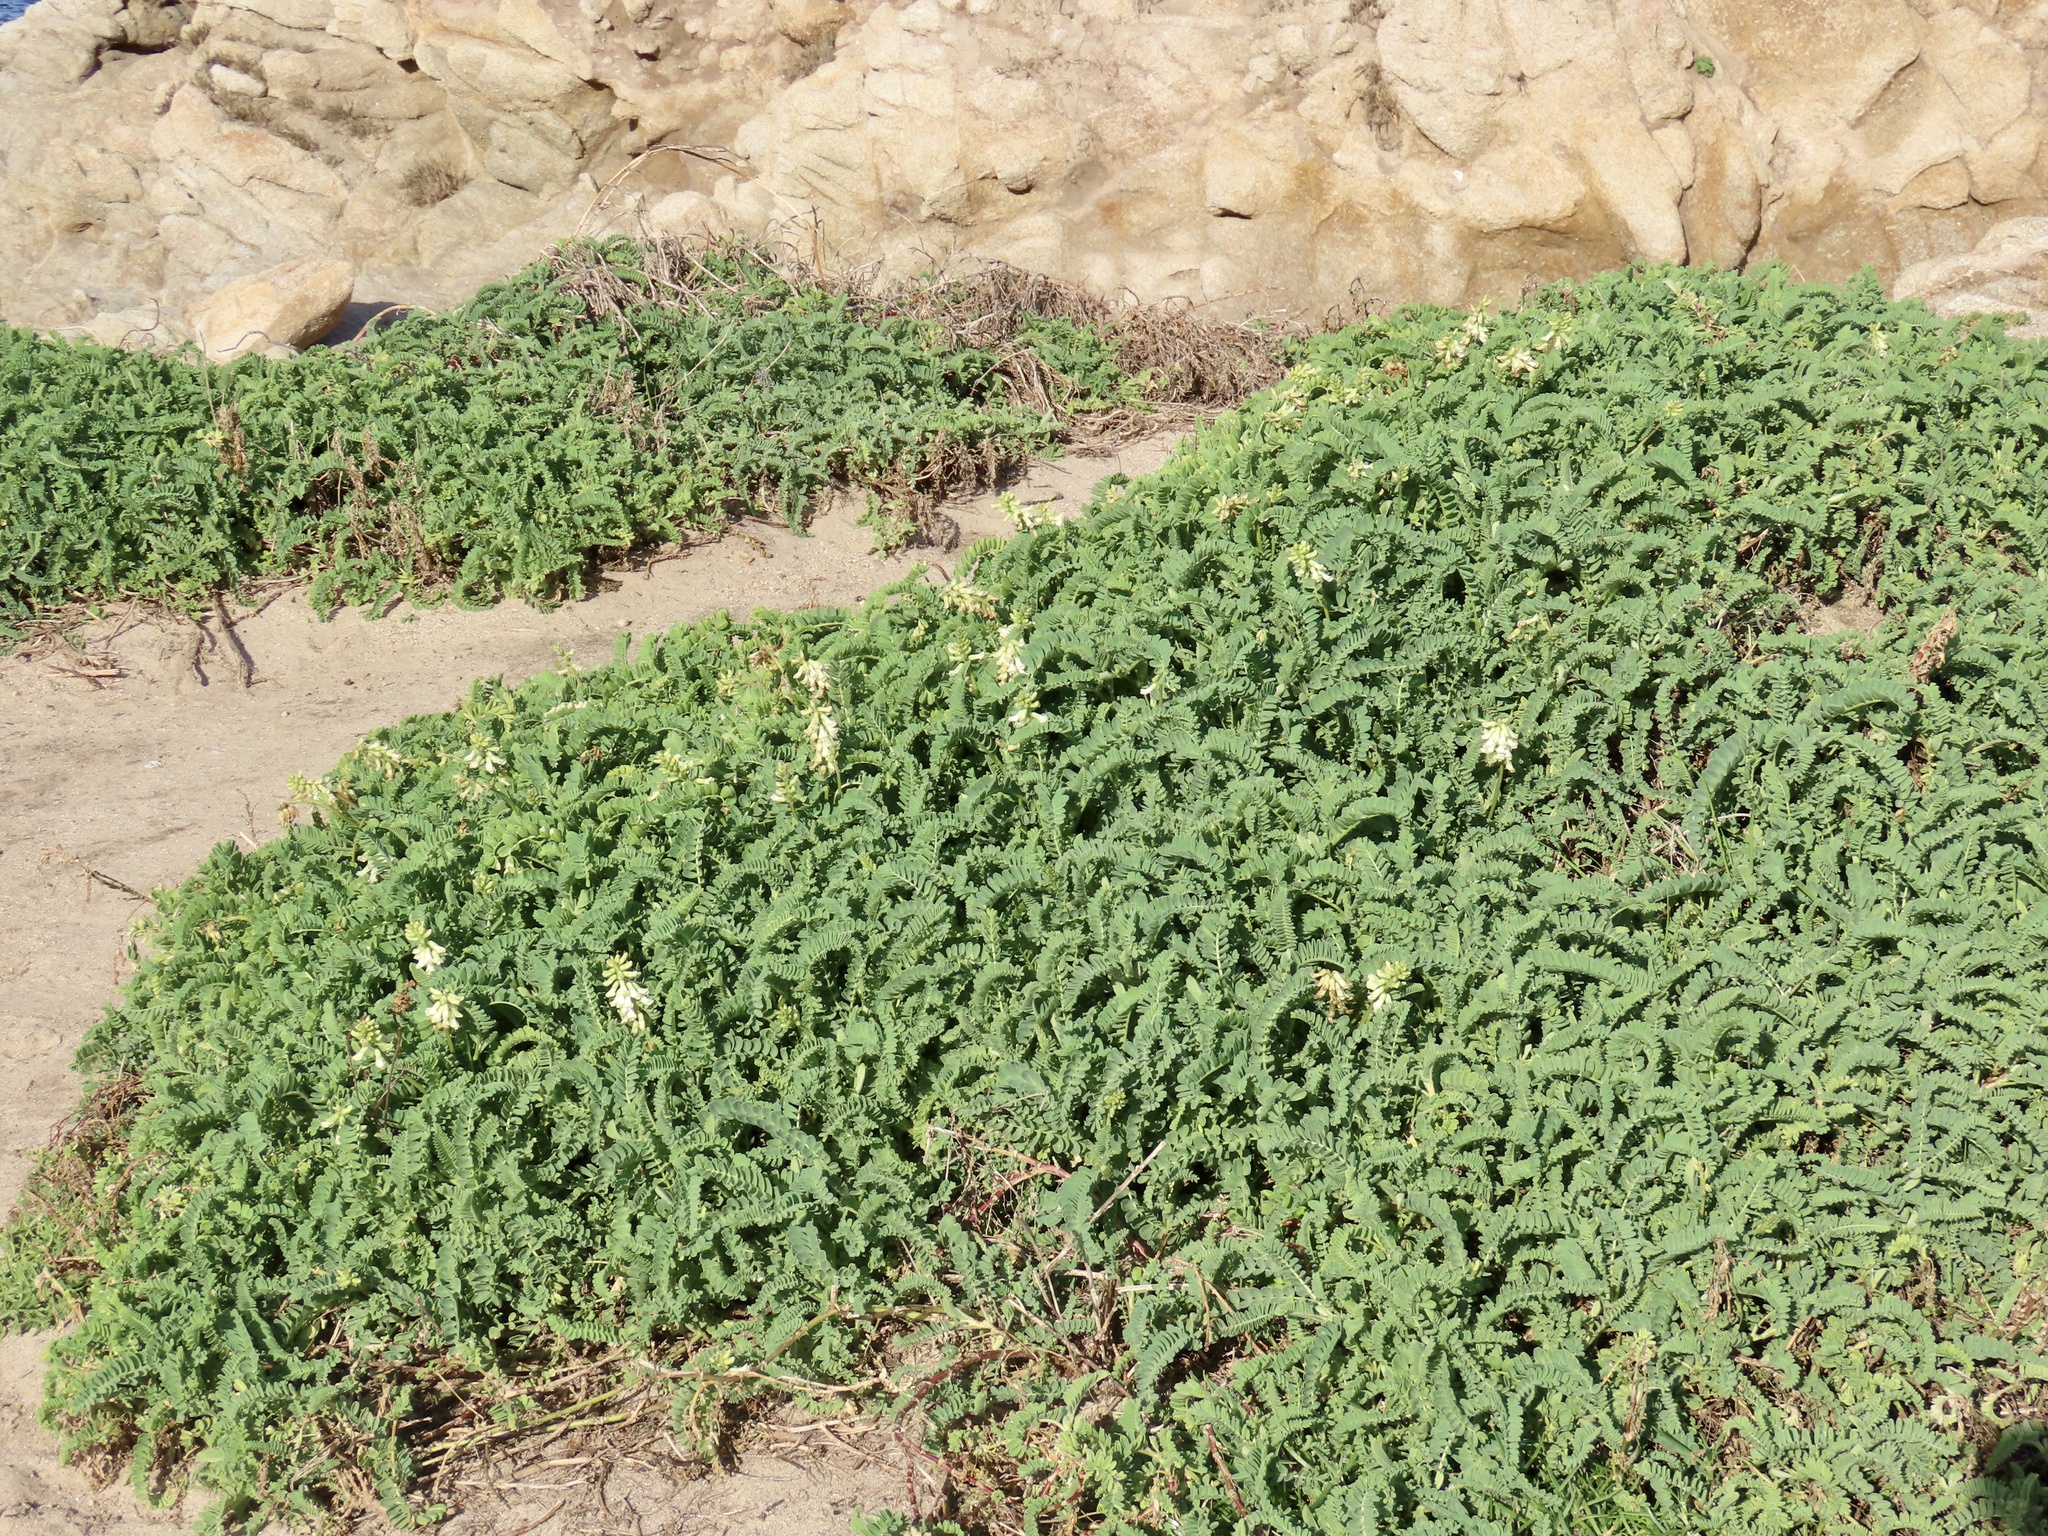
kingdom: Plantae
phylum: Tracheophyta
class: Magnoliopsida
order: Fabales
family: Fabaceae
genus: Astragalus
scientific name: Astragalus nuttallii
